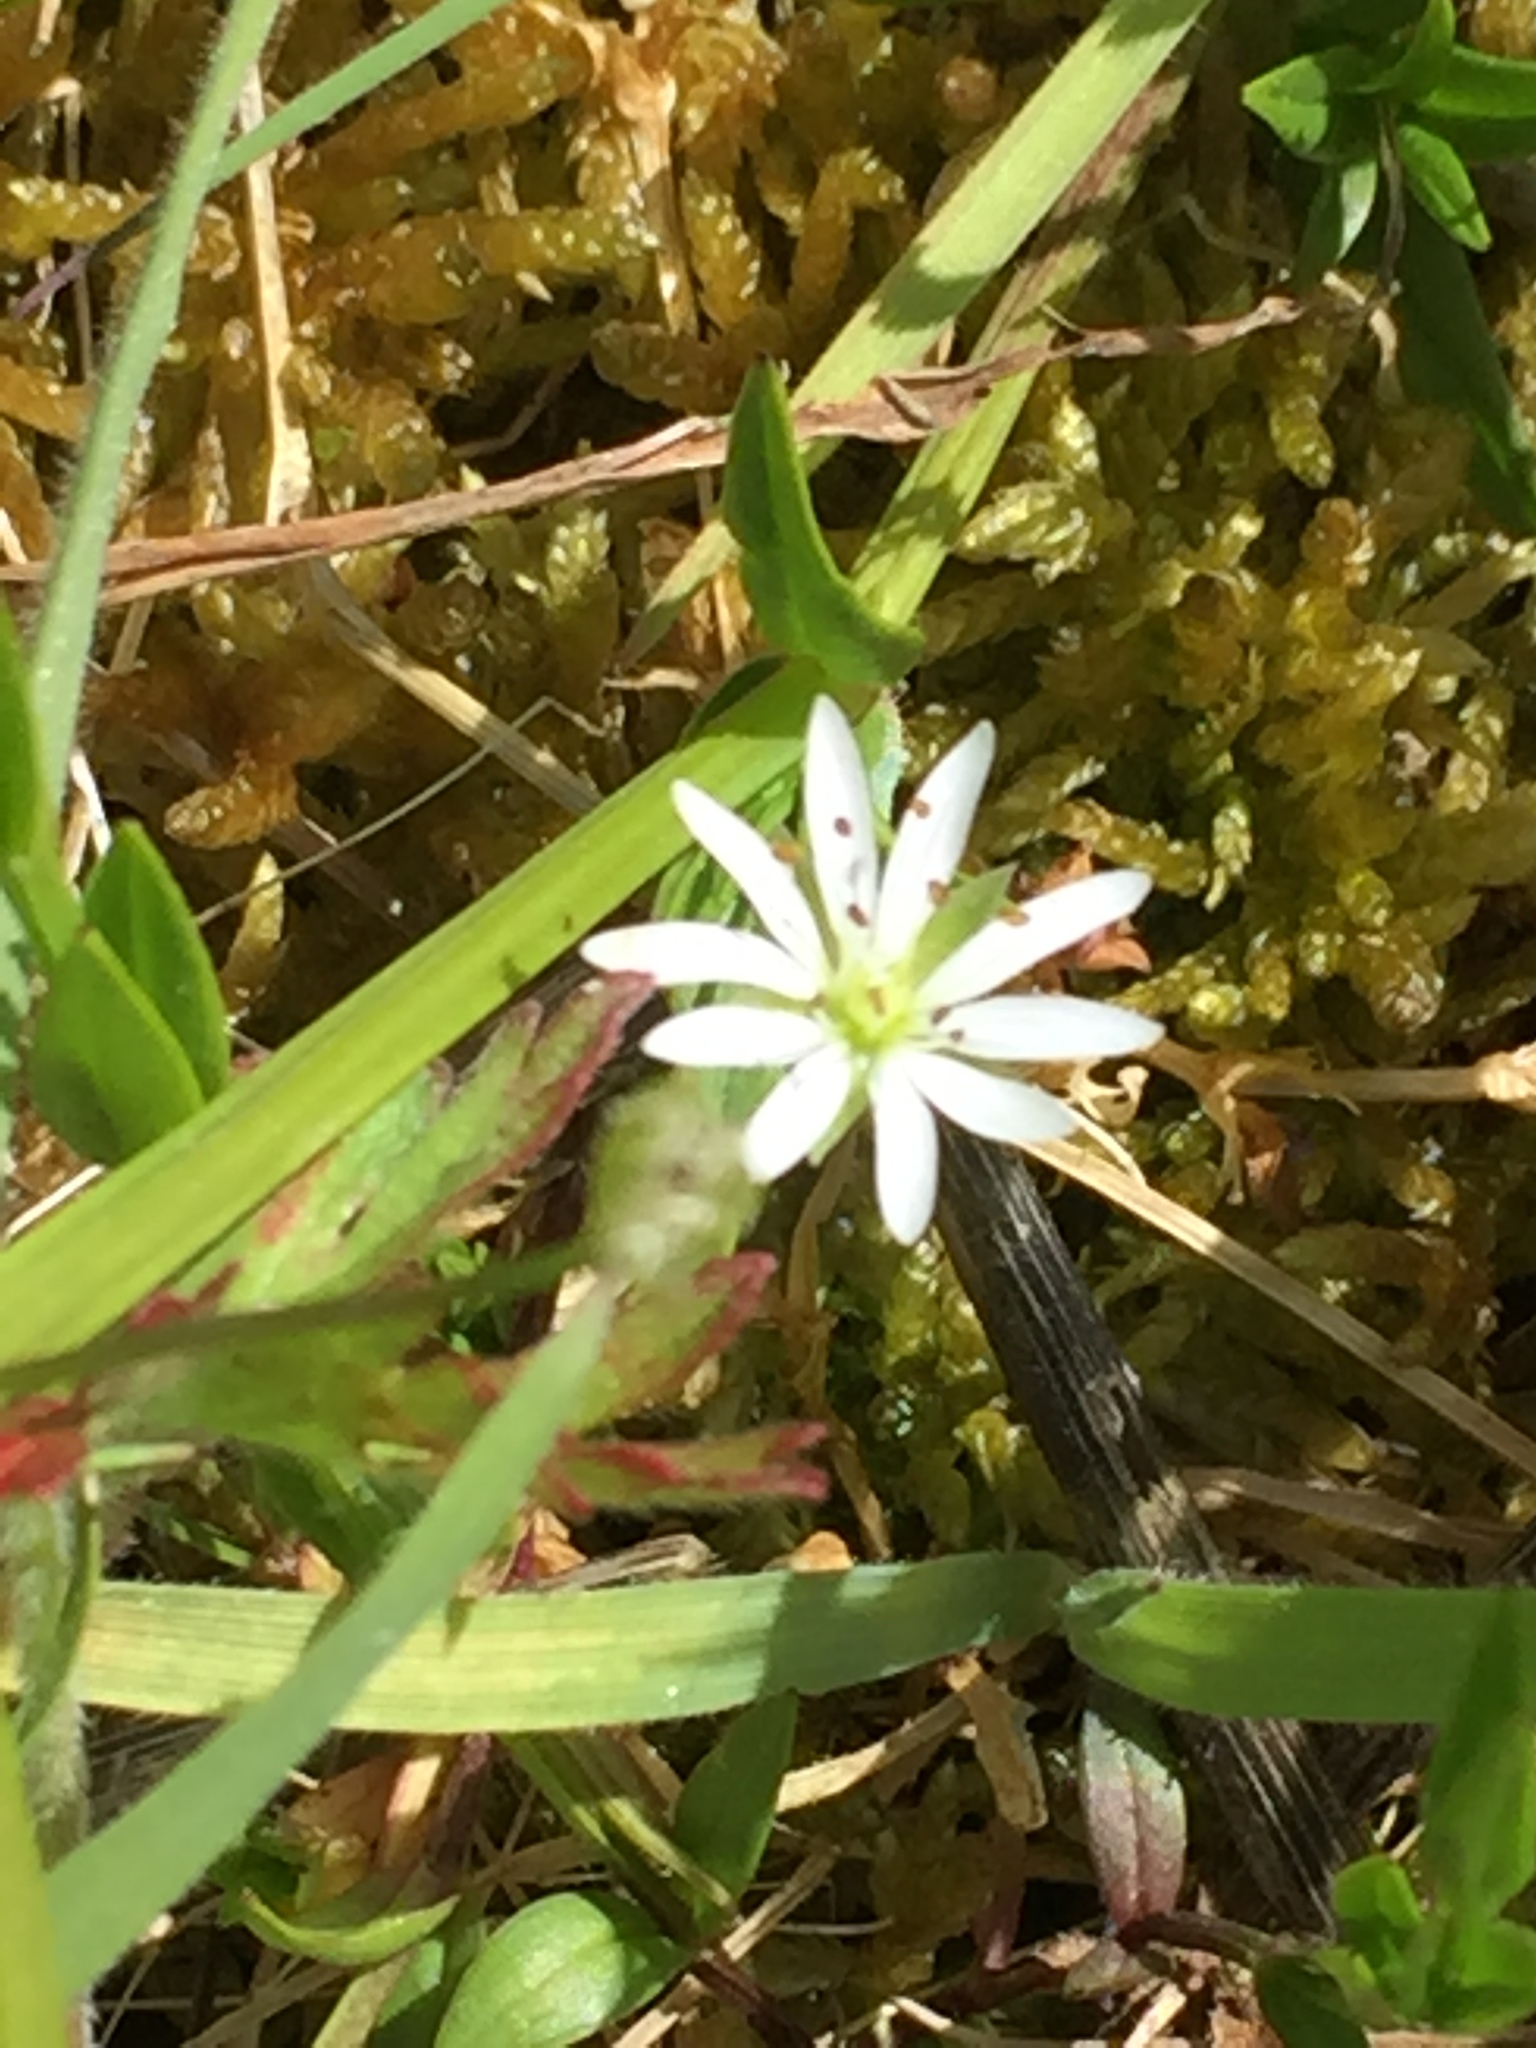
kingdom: Plantae
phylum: Tracheophyta
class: Magnoliopsida
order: Caryophyllales
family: Caryophyllaceae
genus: Stellaria
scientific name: Stellaria graminea
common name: Grass-like starwort
